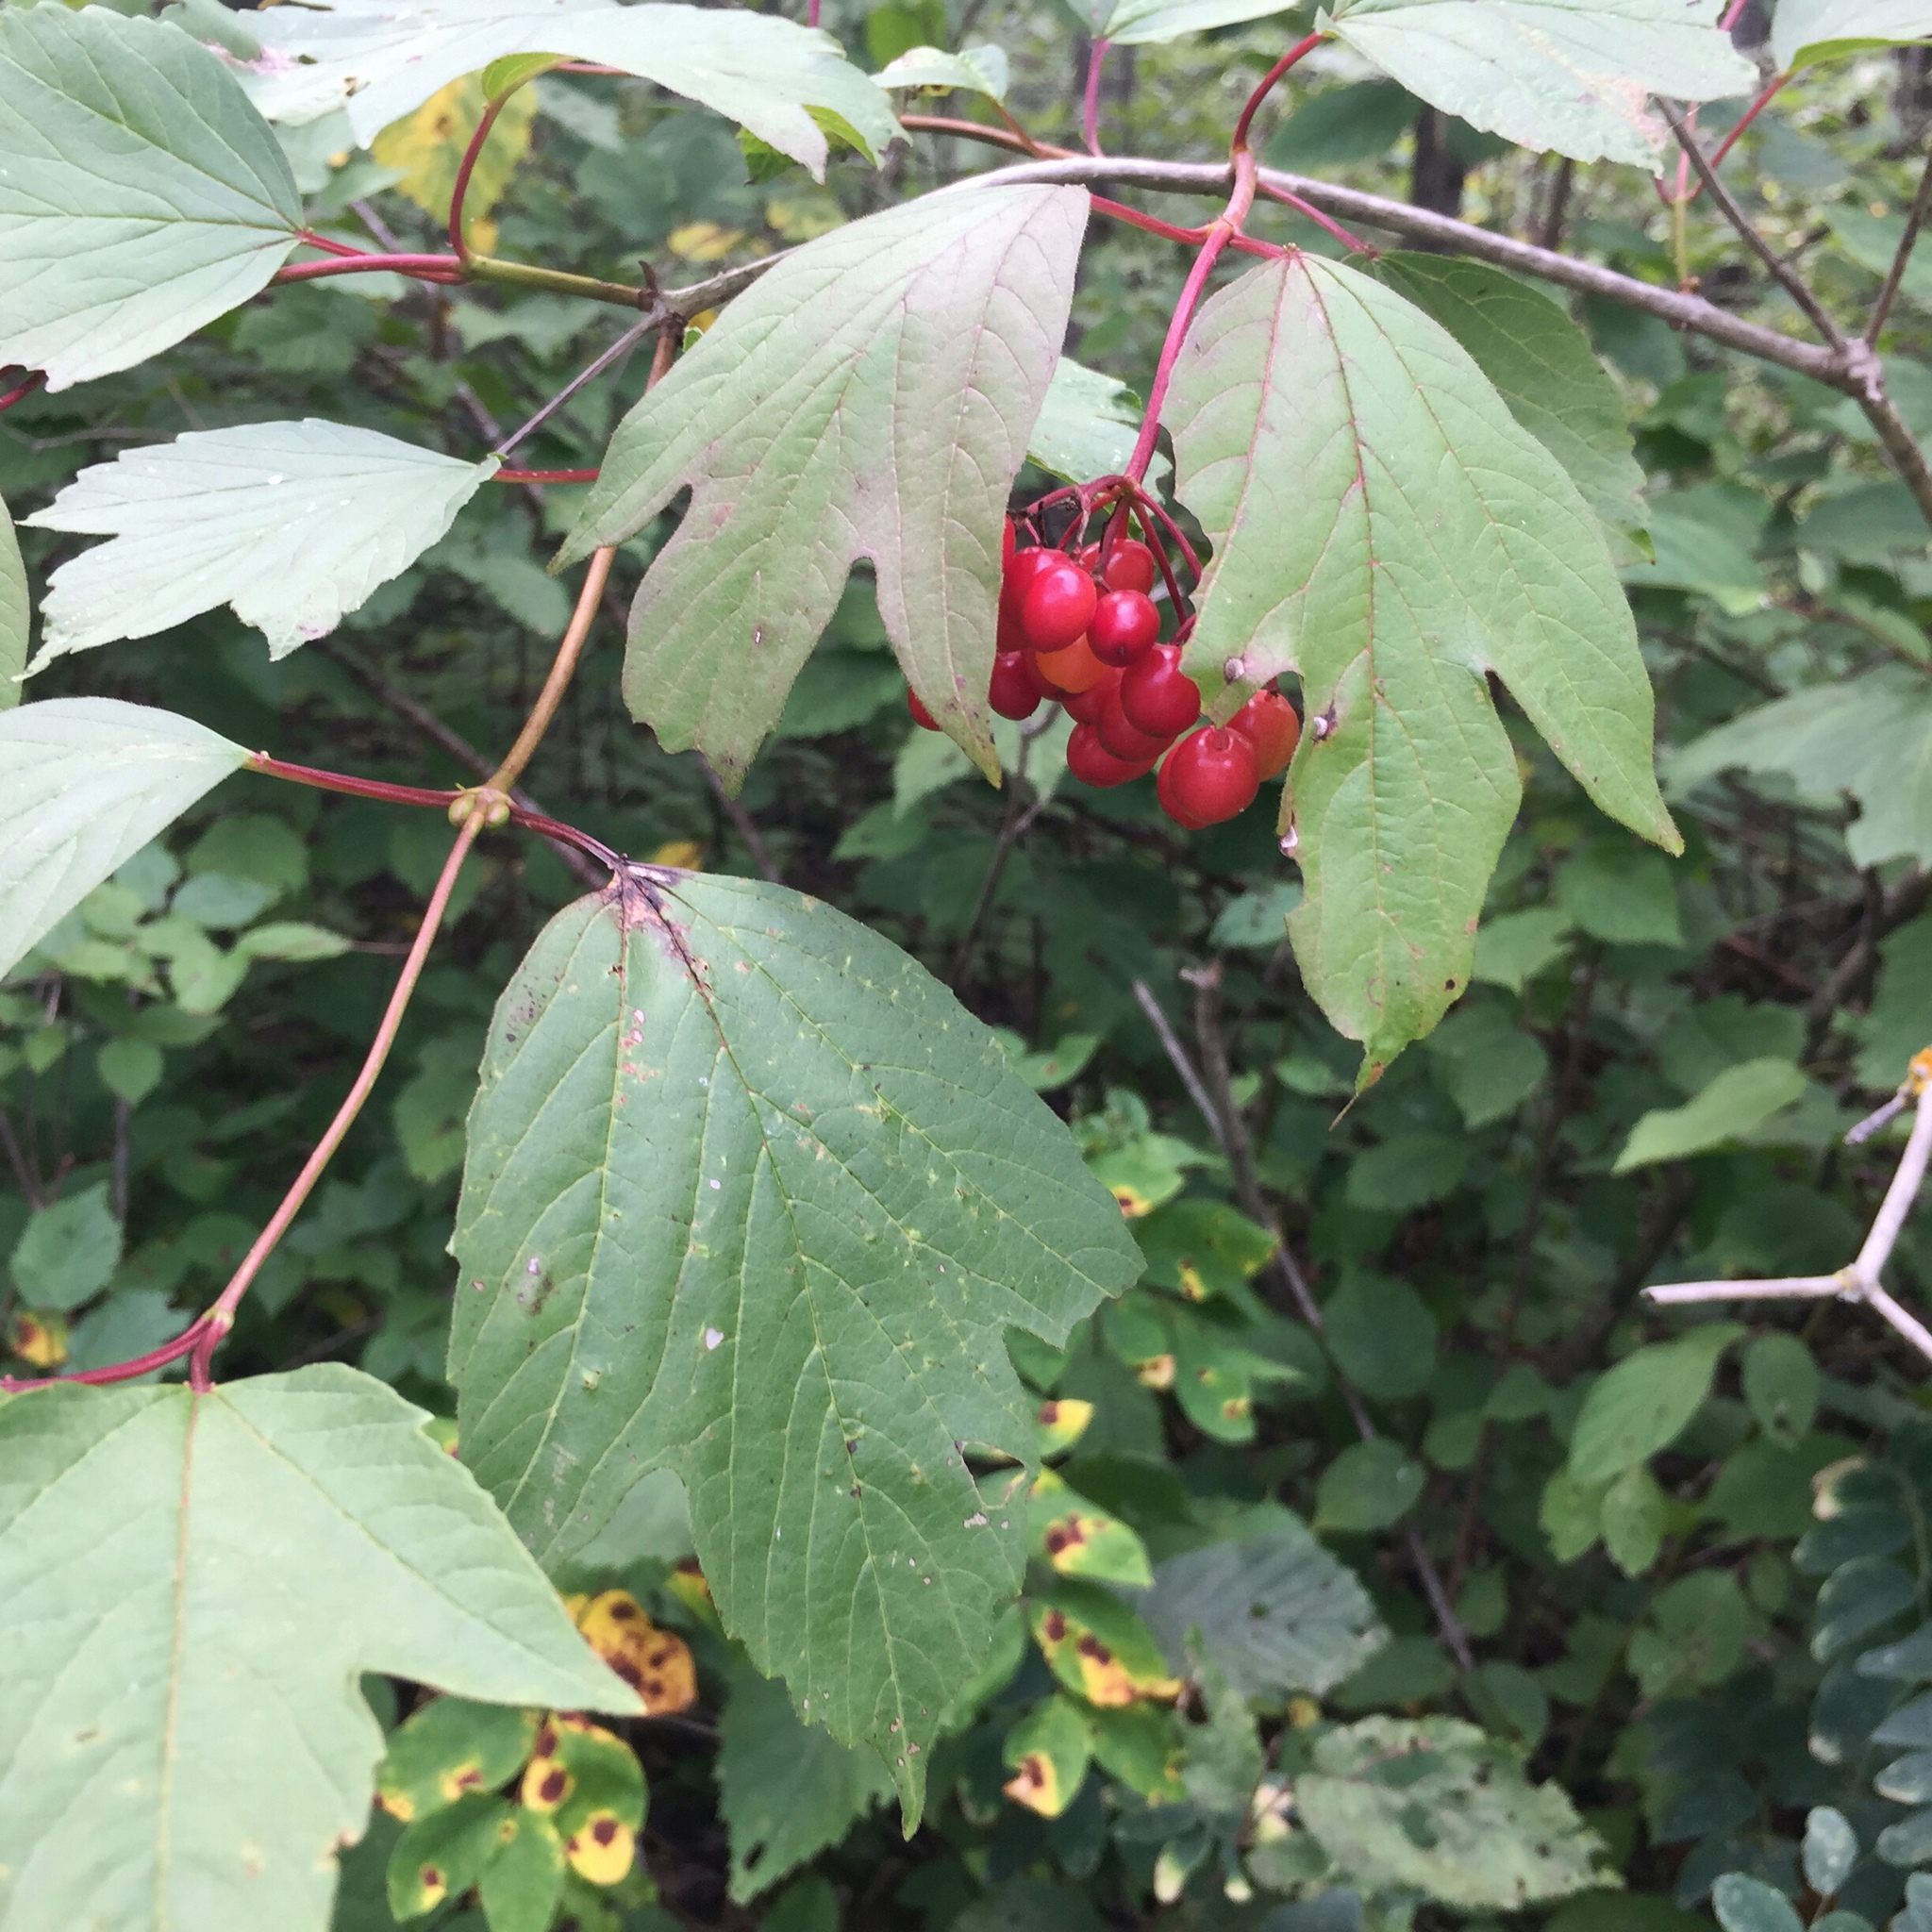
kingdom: Plantae
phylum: Tracheophyta
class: Magnoliopsida
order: Dipsacales
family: Viburnaceae
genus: Viburnum
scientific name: Viburnum trilobum
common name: American cranberrybush
